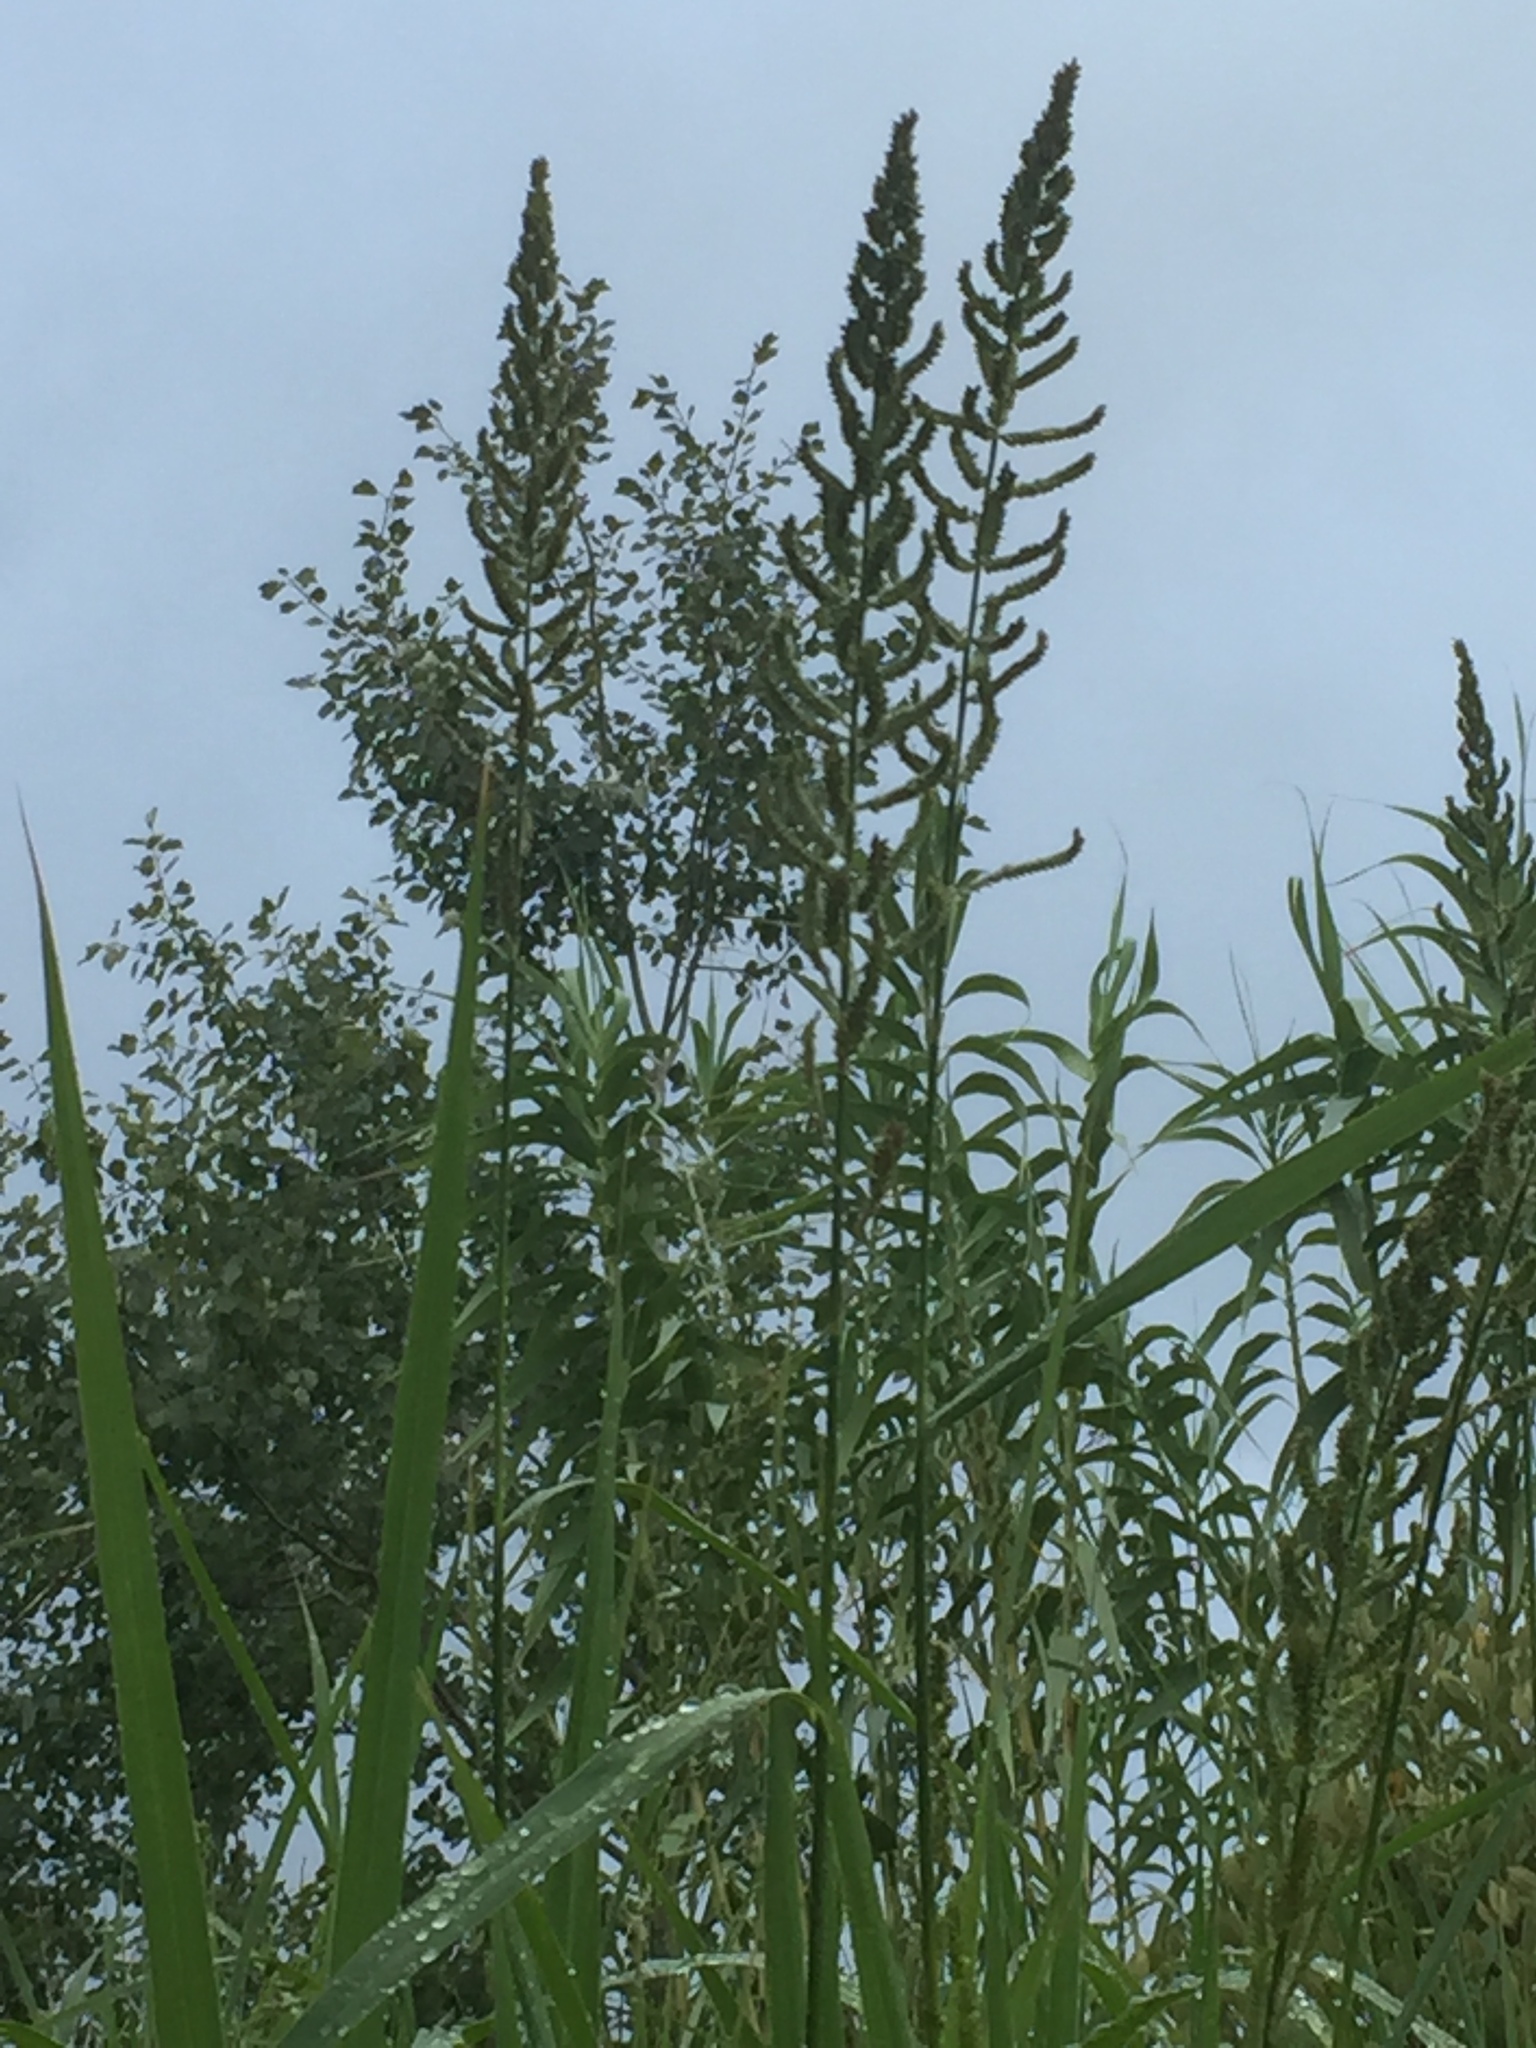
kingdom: Plantae
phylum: Tracheophyta
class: Liliopsida
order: Poales
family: Poaceae
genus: Echinochloa
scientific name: Echinochloa pyramidalis
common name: Antelope grass
